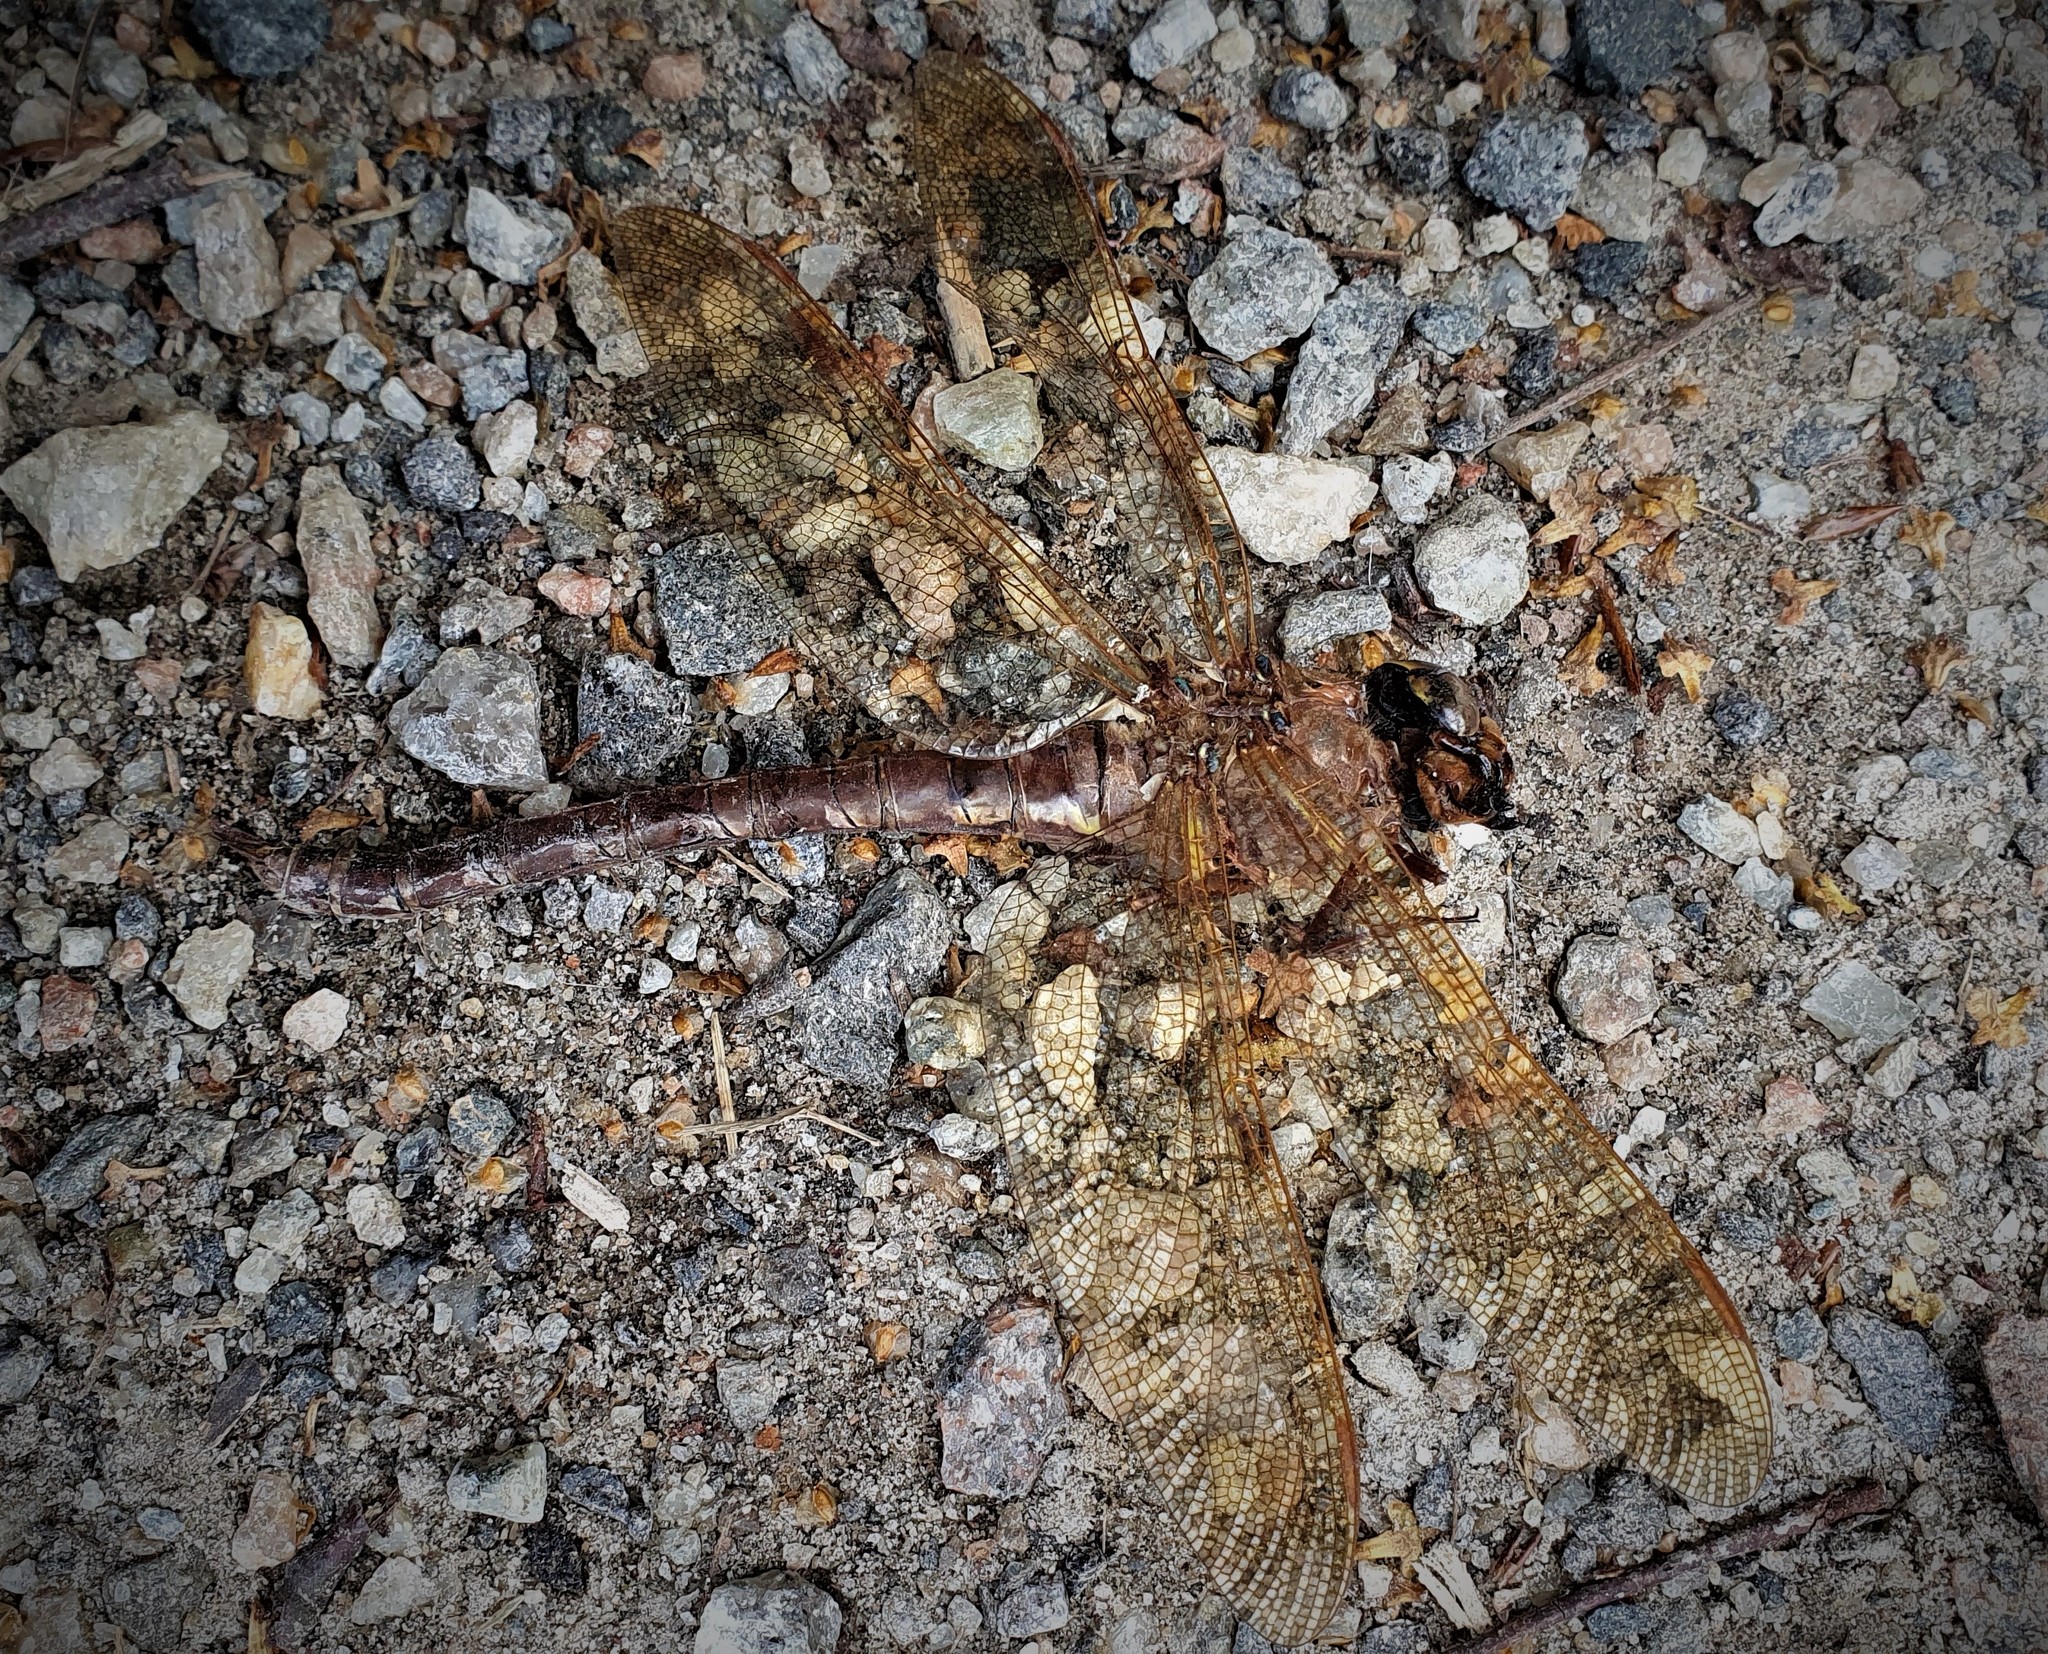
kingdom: Animalia
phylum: Arthropoda
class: Insecta
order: Odonata
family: Aeshnidae
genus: Aeshna
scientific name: Aeshna grandis
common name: Brown hawker
